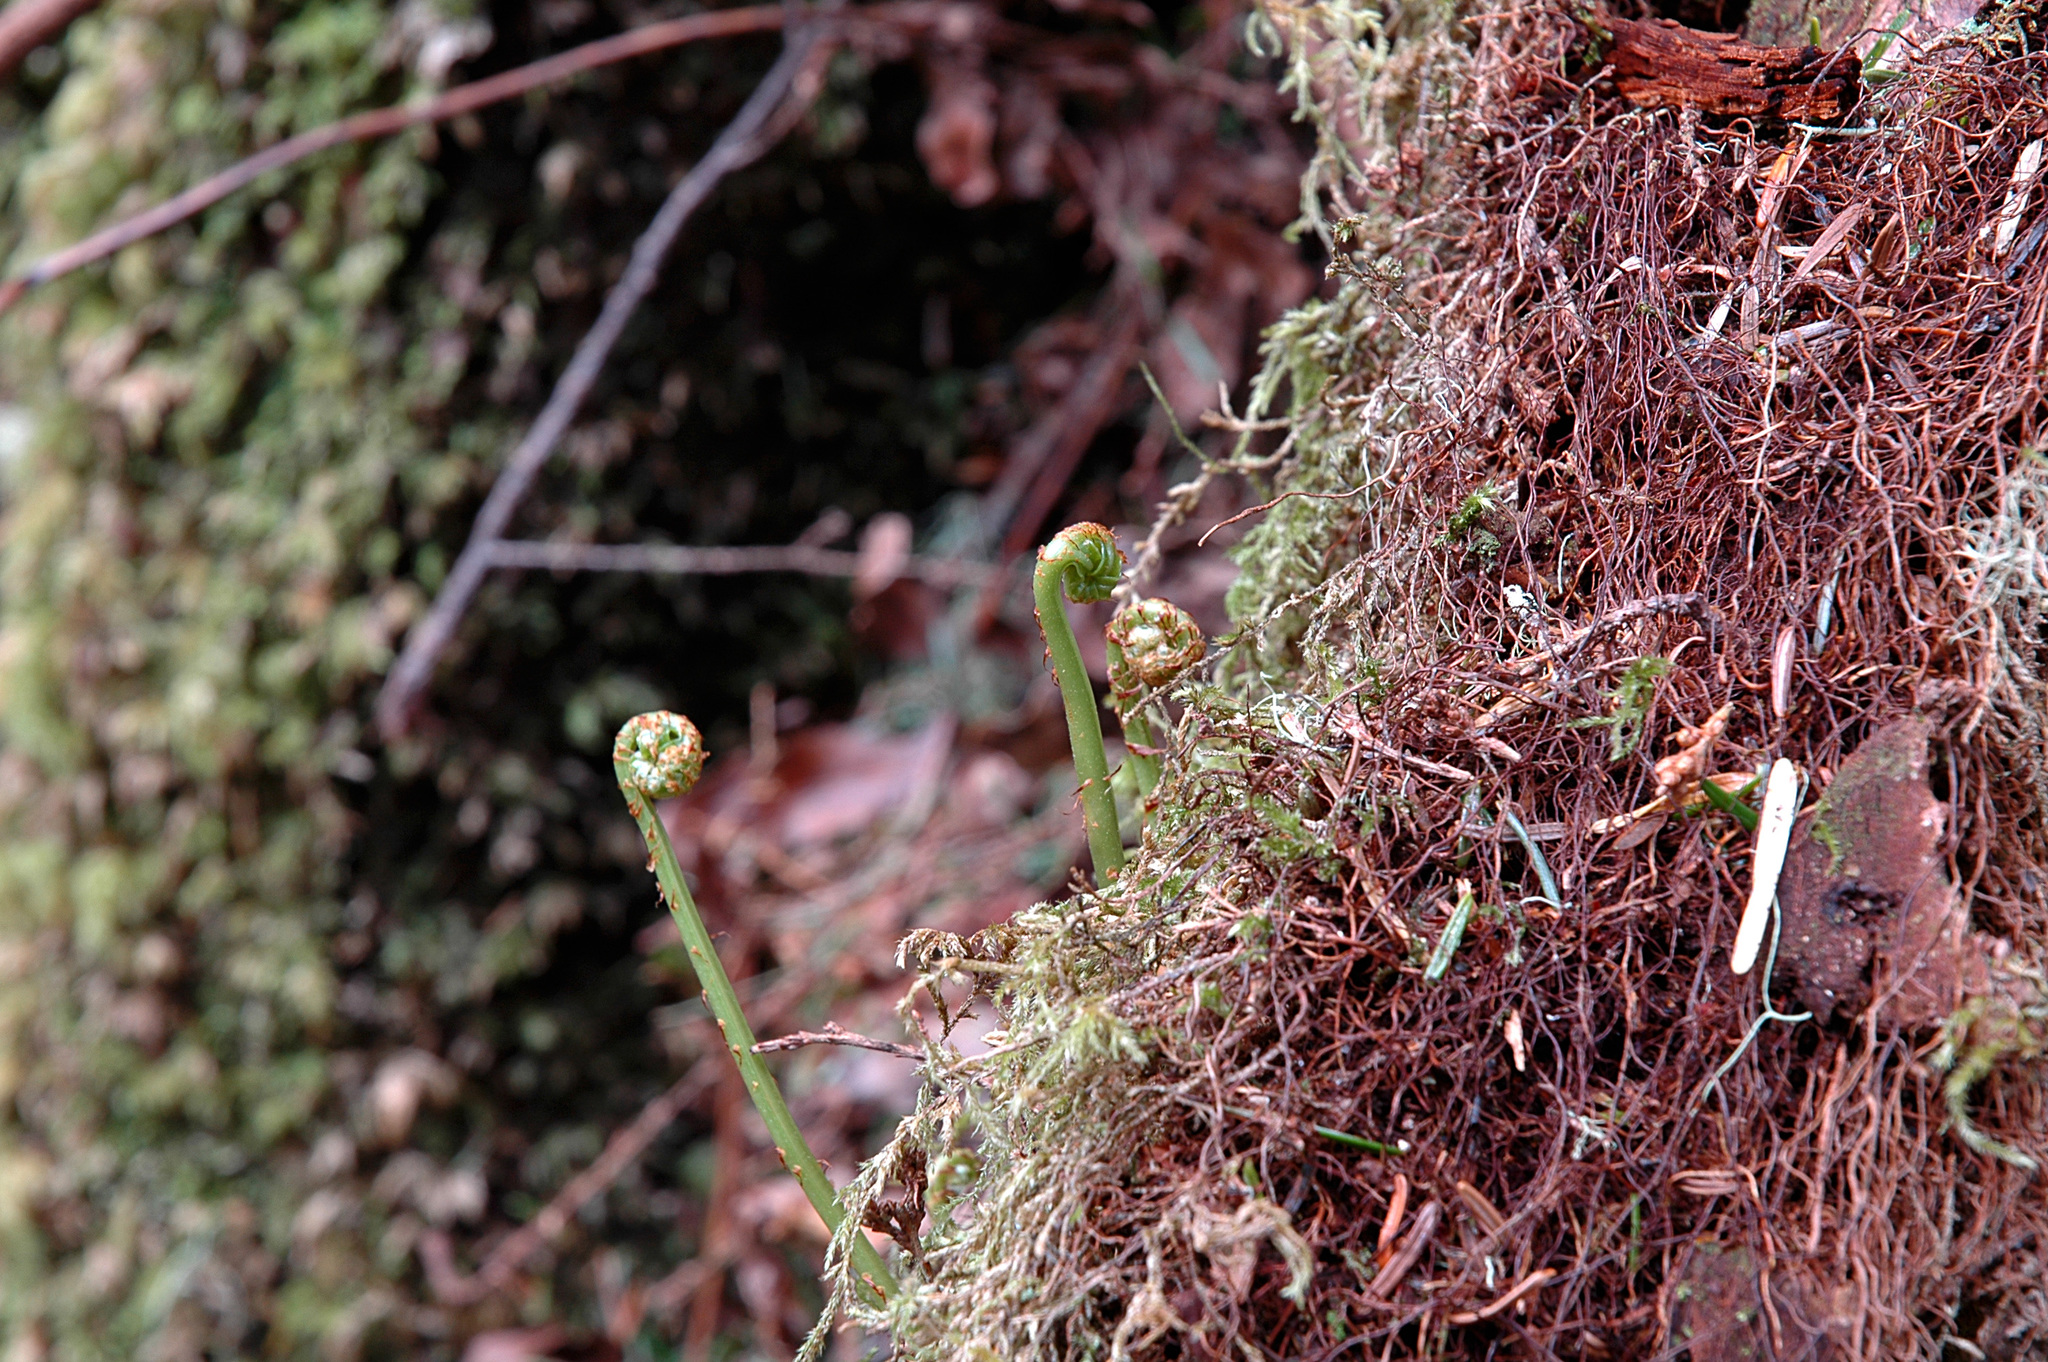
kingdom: Plantae
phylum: Tracheophyta
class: Polypodiopsida
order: Polypodiales
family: Polypodiaceae
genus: Polypodium
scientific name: Polypodium scouleri
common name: Scouler's polypody
